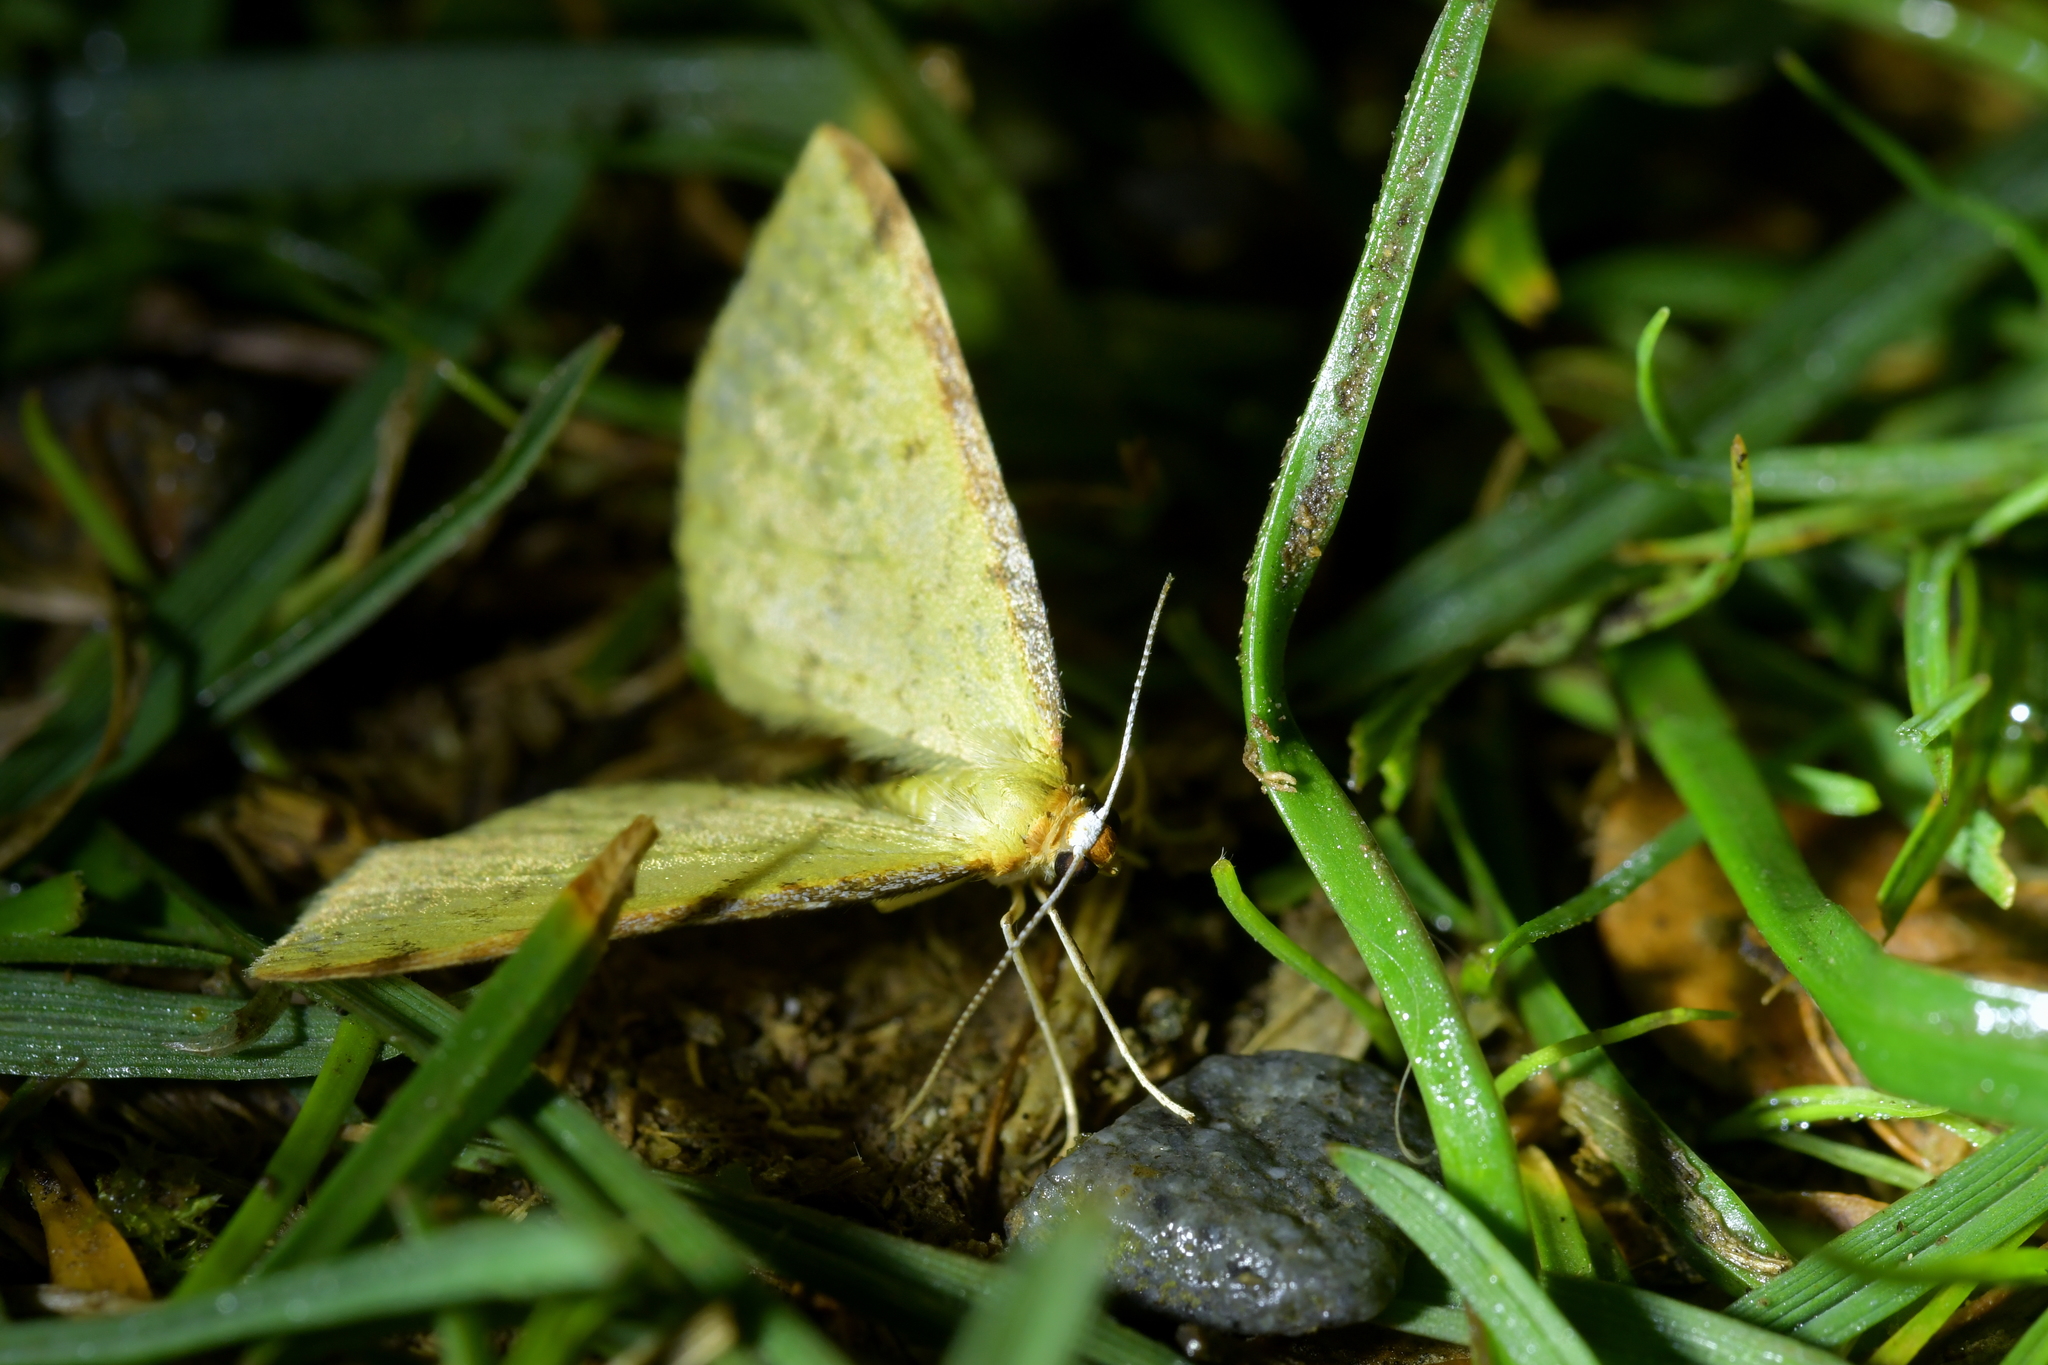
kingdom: Animalia
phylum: Arthropoda
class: Insecta
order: Lepidoptera
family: Geometridae
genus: Epiphryne
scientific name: Epiphryne undosata
